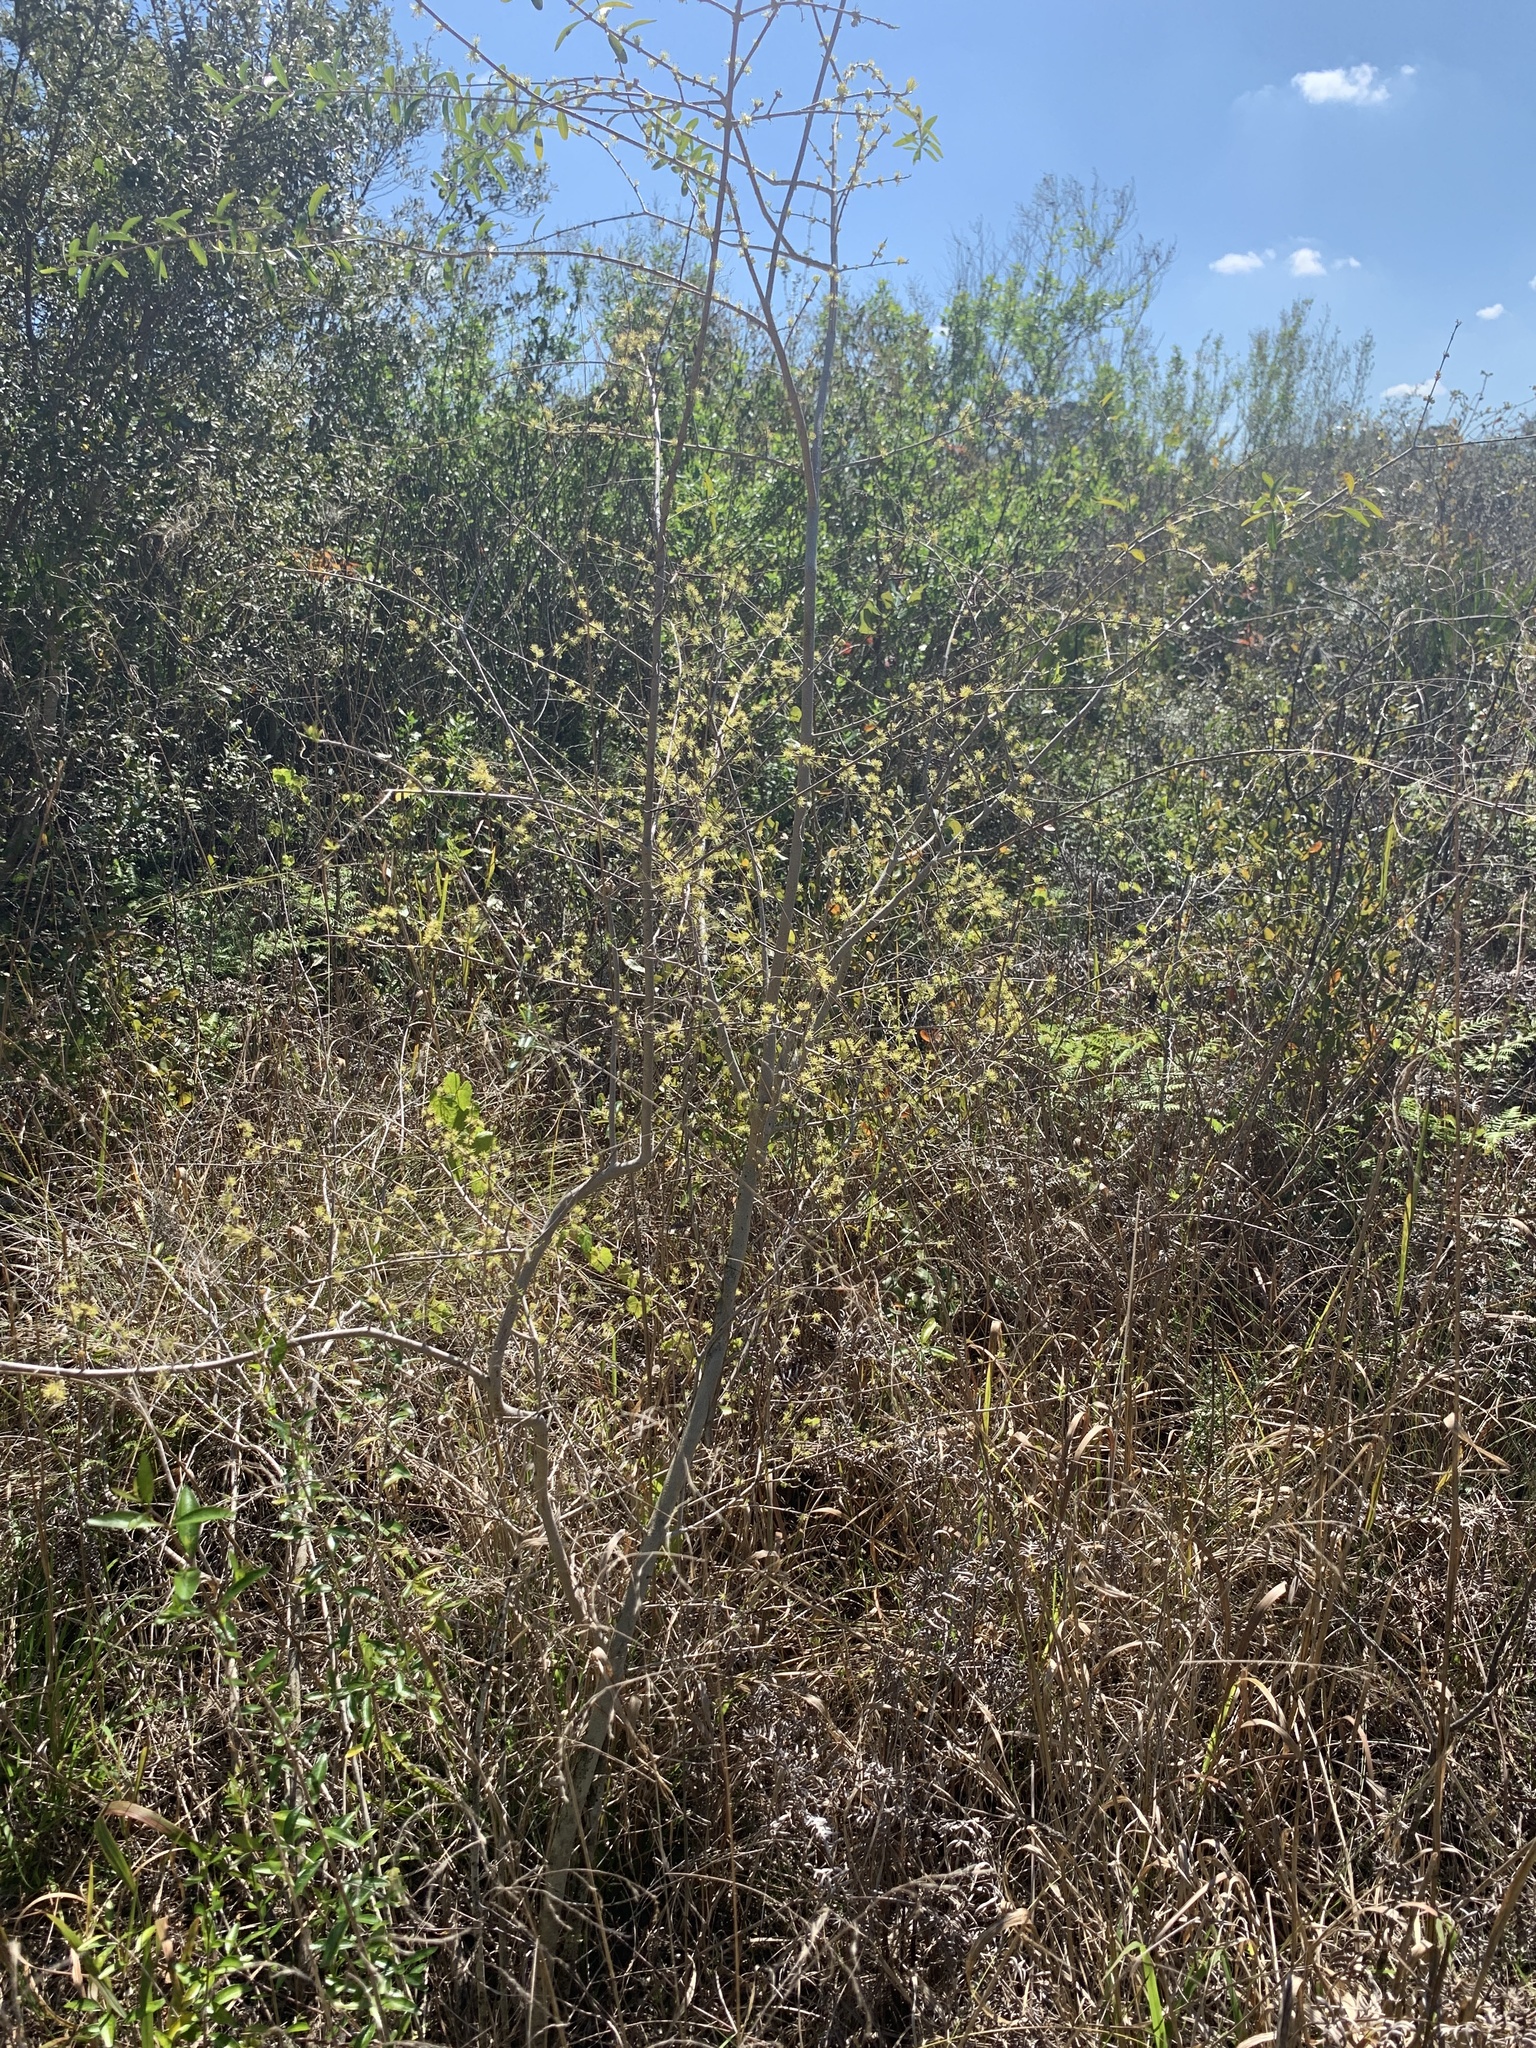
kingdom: Plantae
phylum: Tracheophyta
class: Magnoliopsida
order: Lamiales
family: Oleaceae
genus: Forestiera
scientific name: Forestiera segregata
